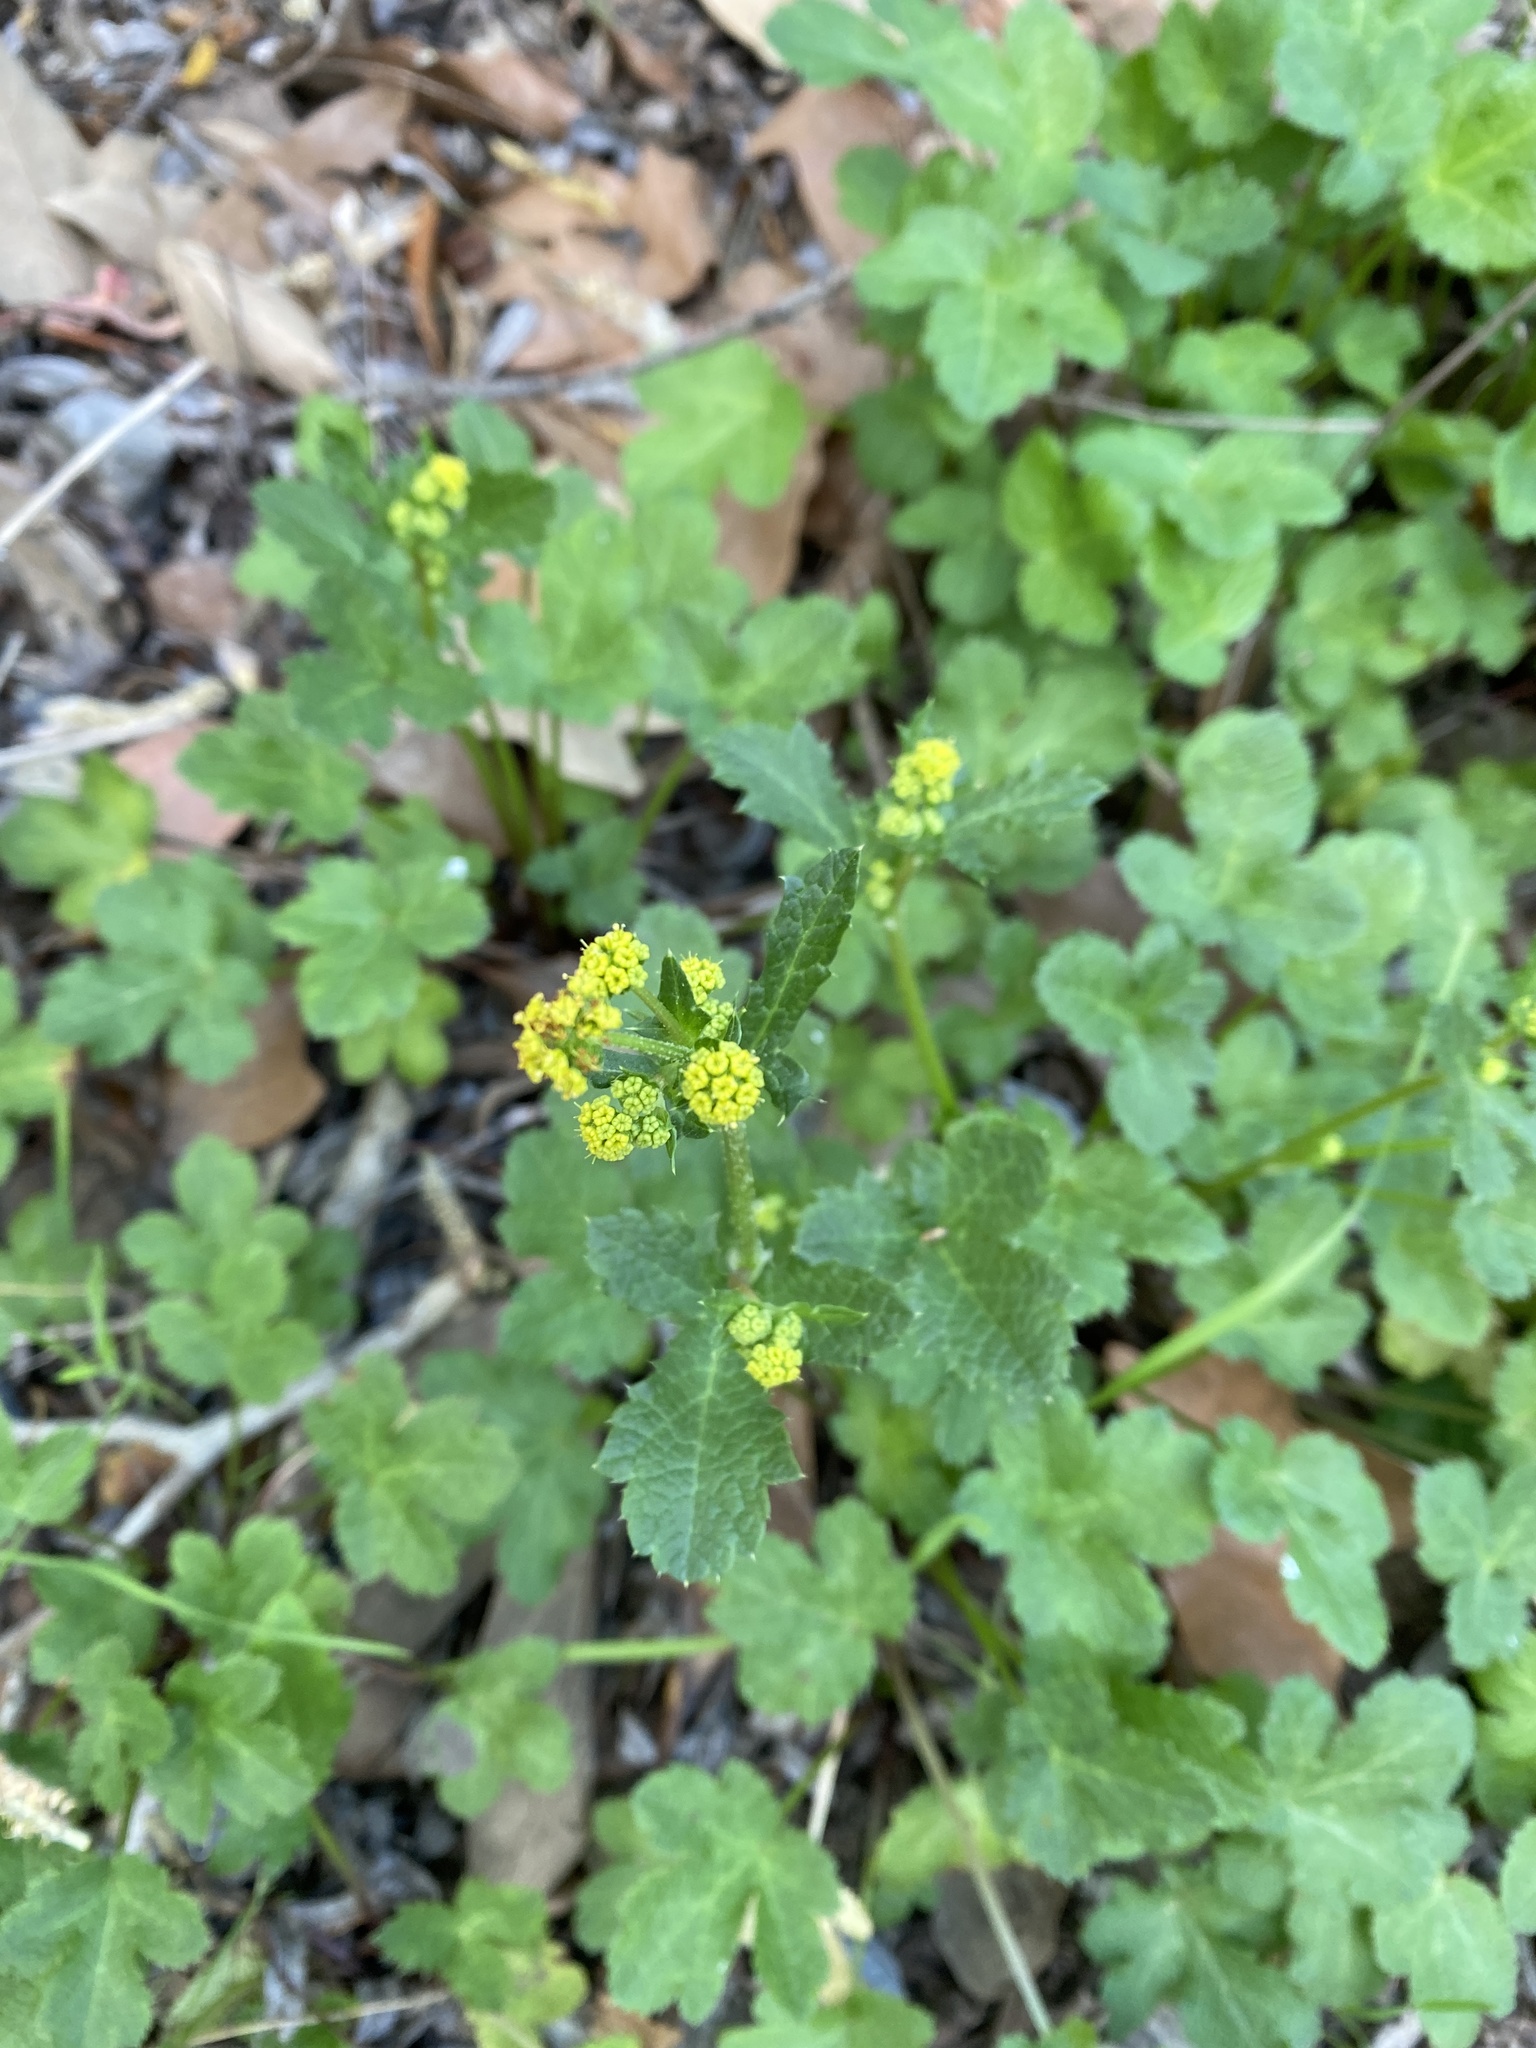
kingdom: Plantae
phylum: Tracheophyta
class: Magnoliopsida
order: Apiales
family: Apiaceae
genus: Sanicula
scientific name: Sanicula crassicaulis
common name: Western snakeroot
